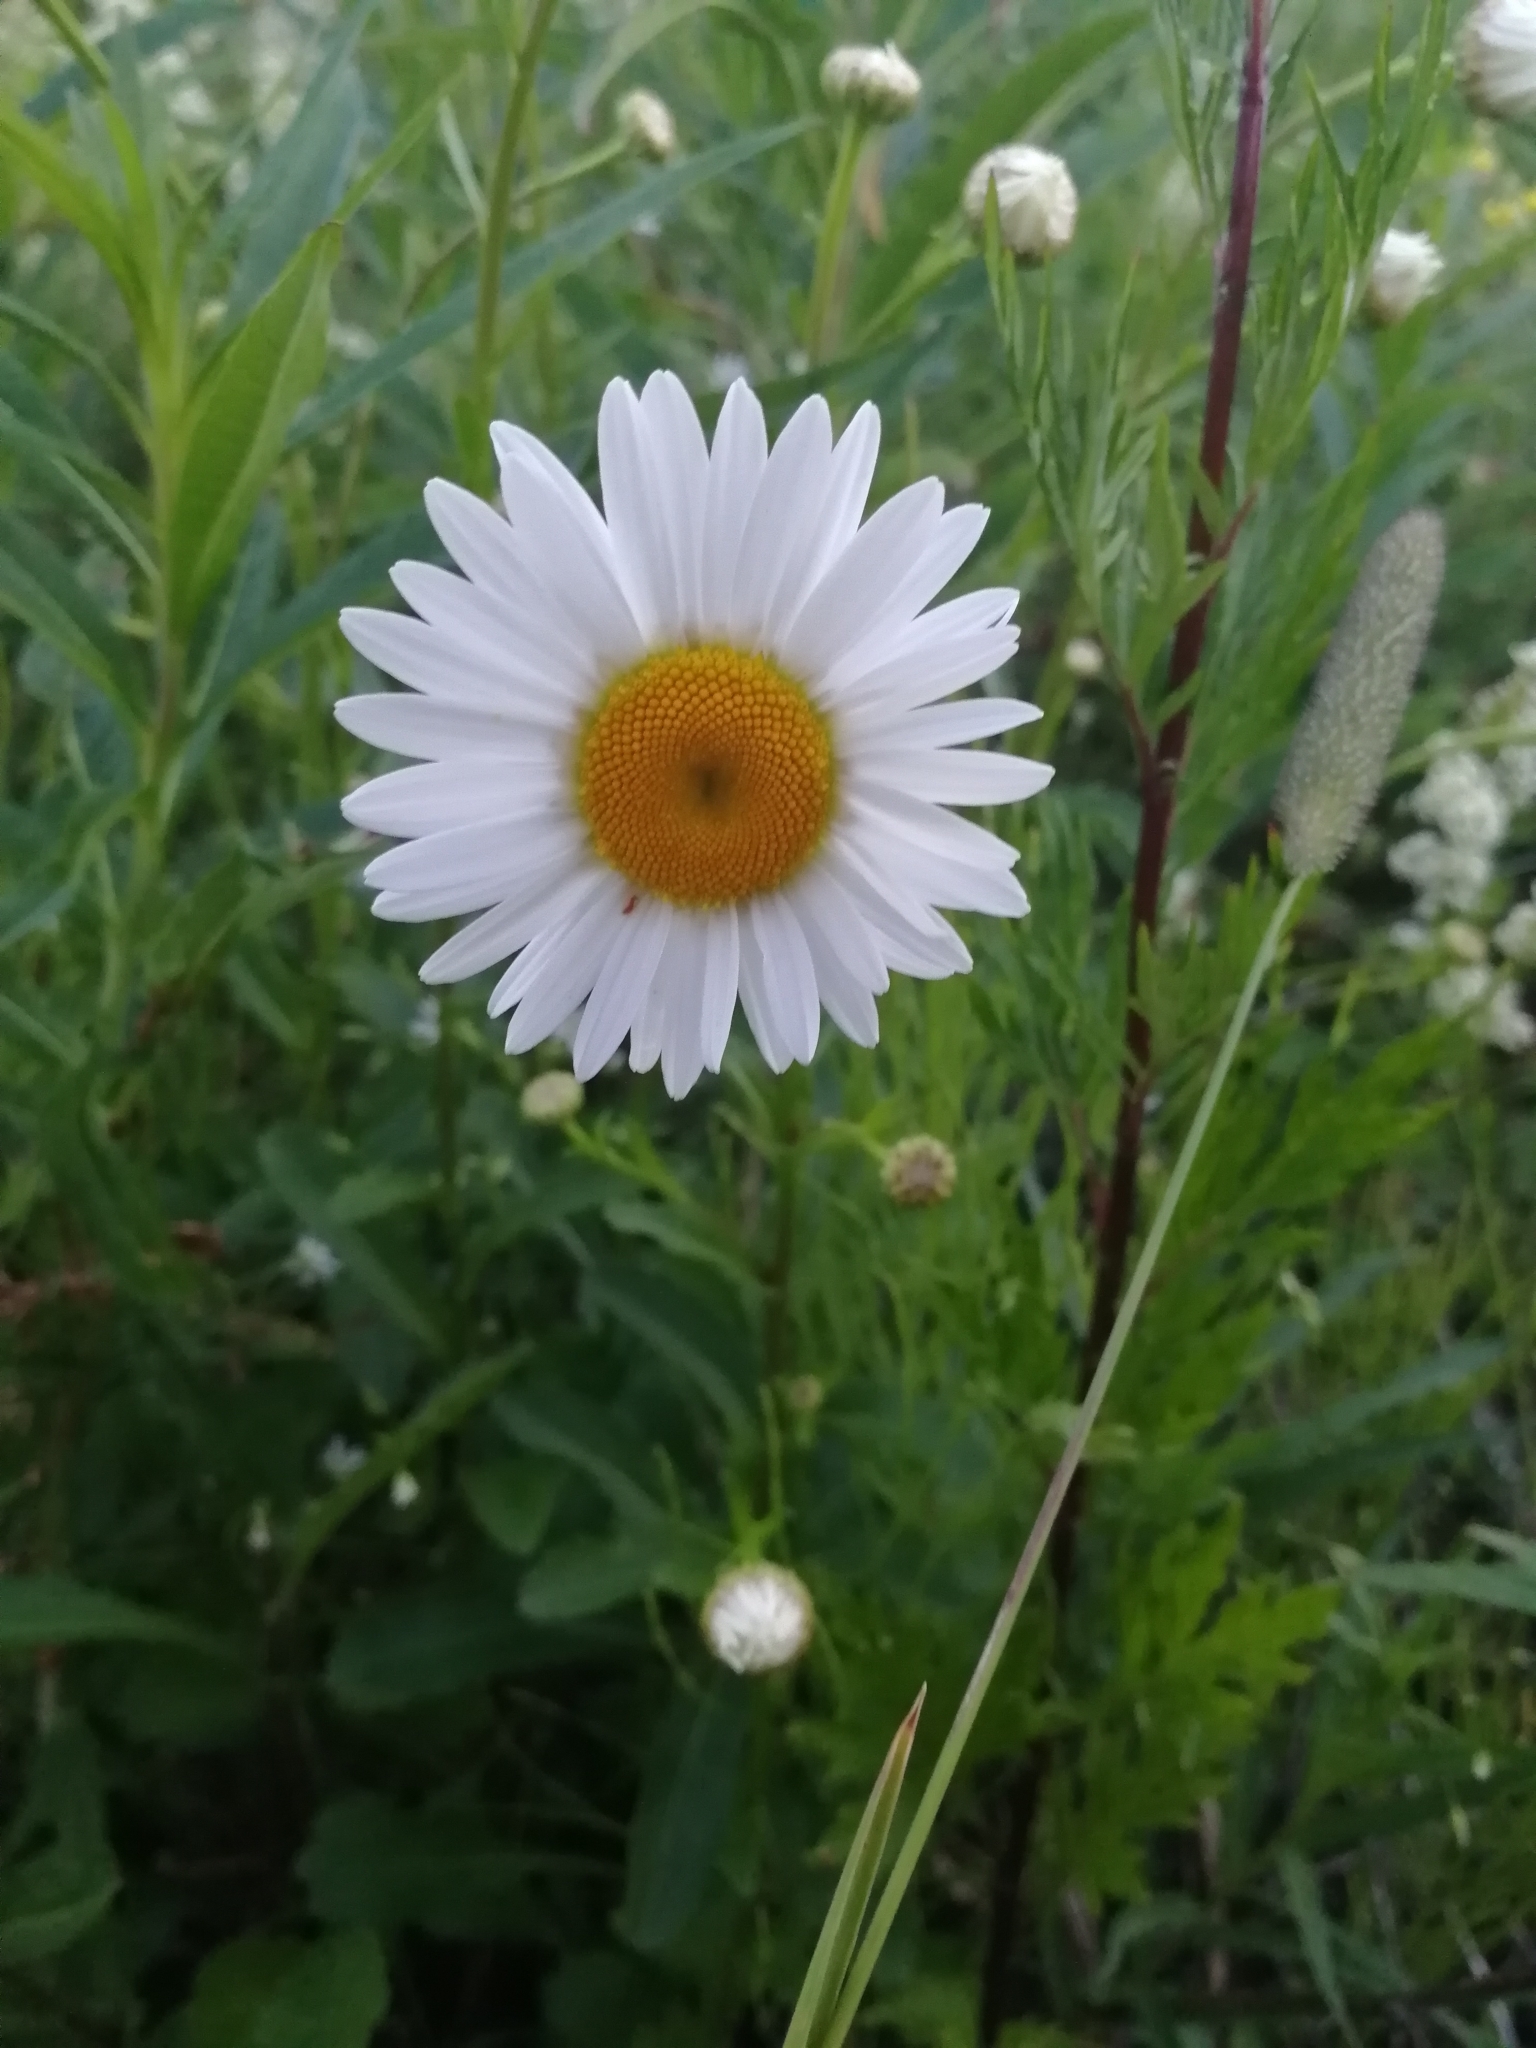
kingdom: Plantae
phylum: Tracheophyta
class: Magnoliopsida
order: Asterales
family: Asteraceae
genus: Leucanthemum
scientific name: Leucanthemum ircutianum
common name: Daisy
